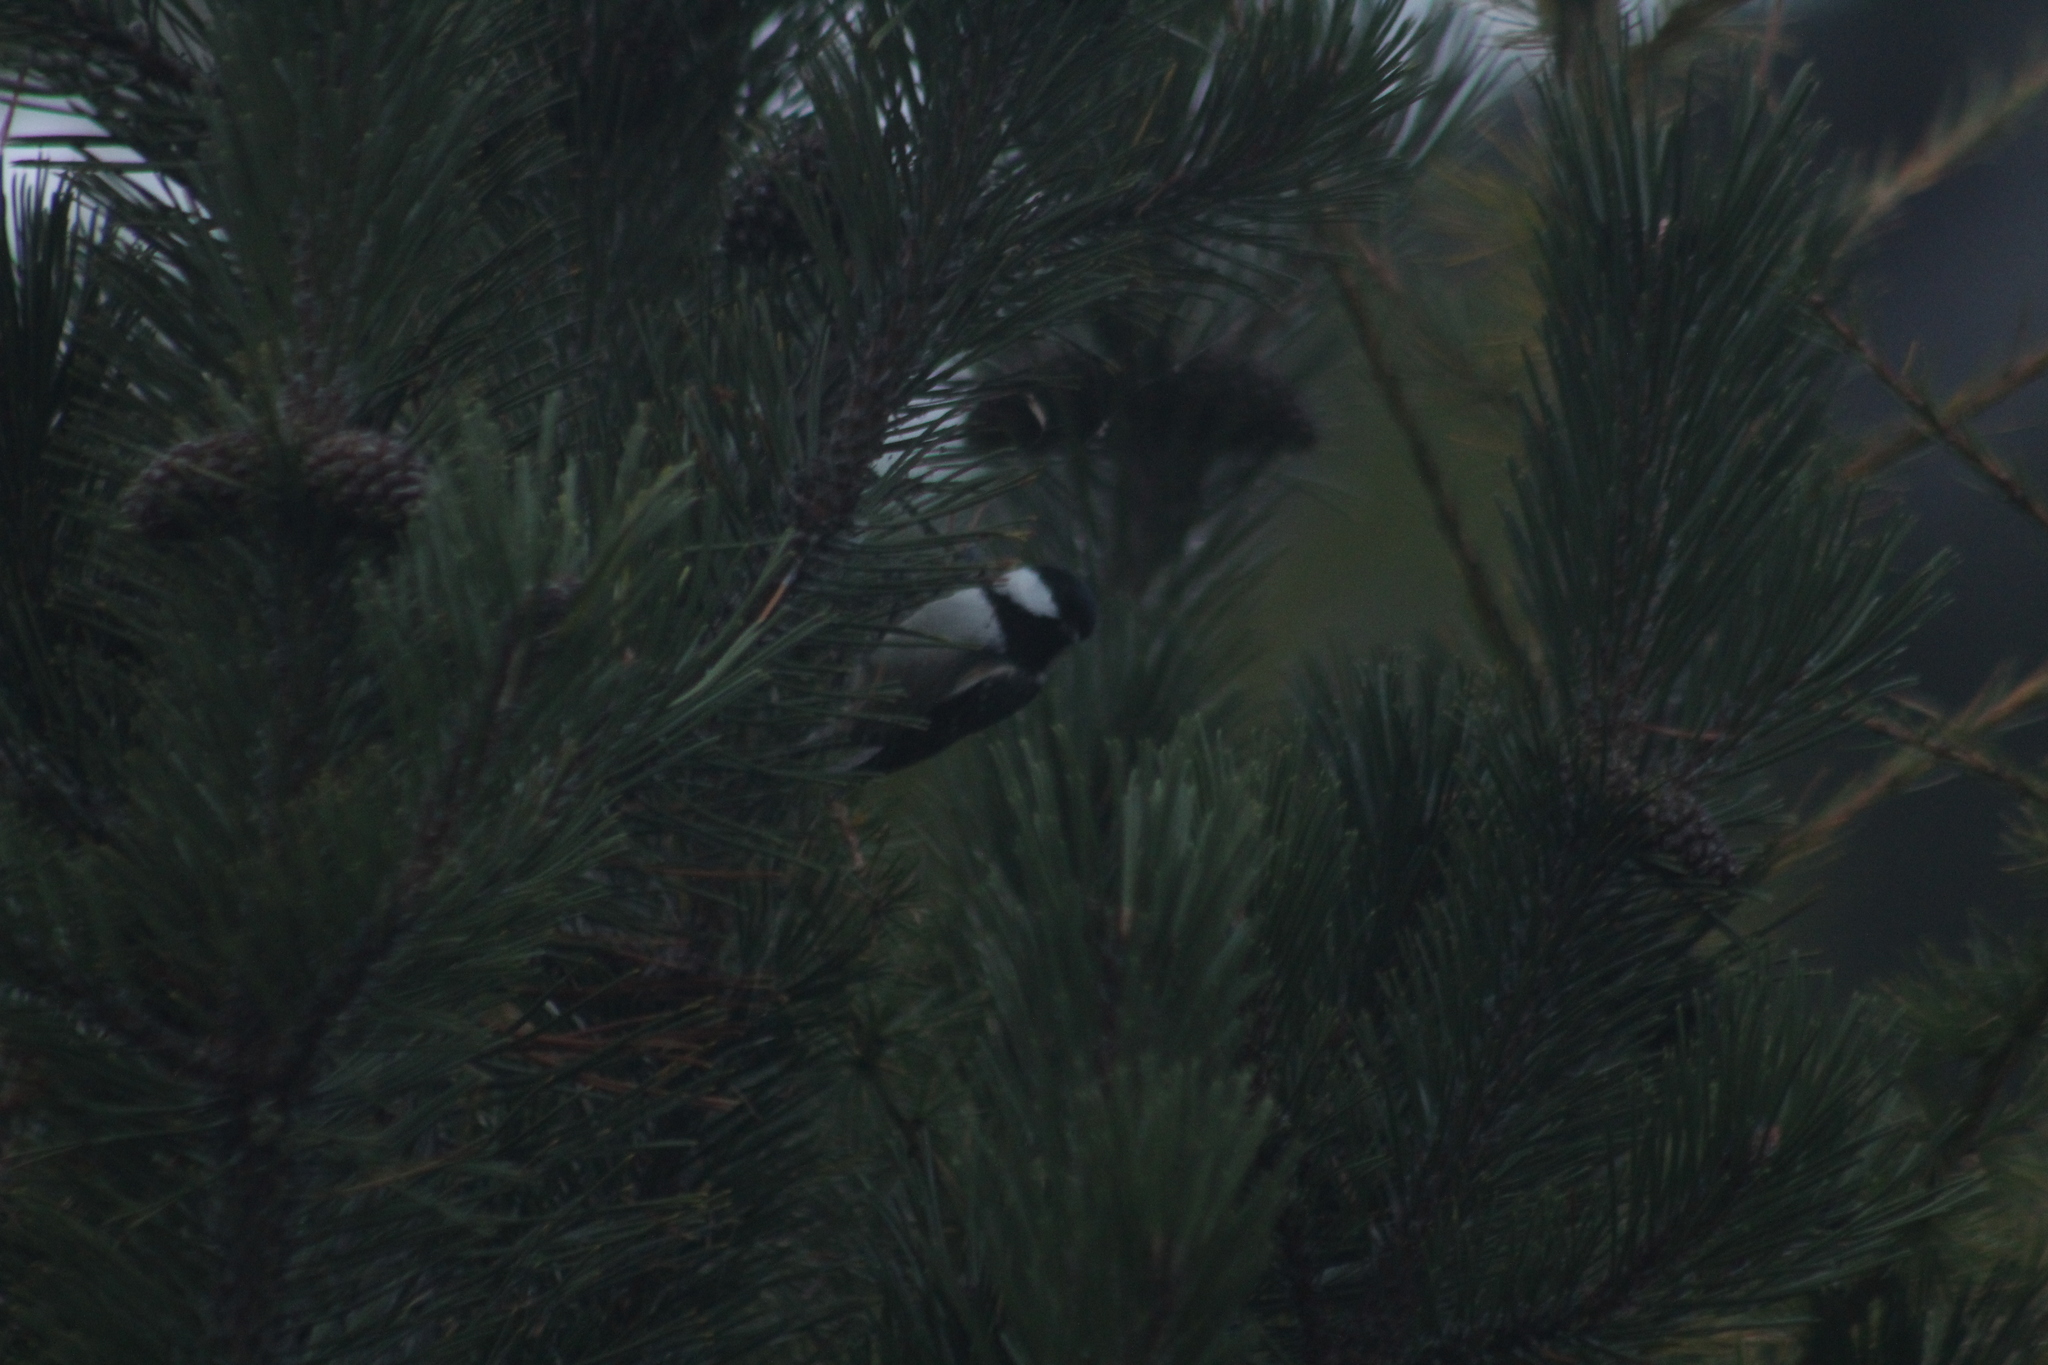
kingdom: Animalia
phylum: Chordata
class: Aves
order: Passeriformes
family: Paridae
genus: Periparus
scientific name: Periparus ater
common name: Coal tit
